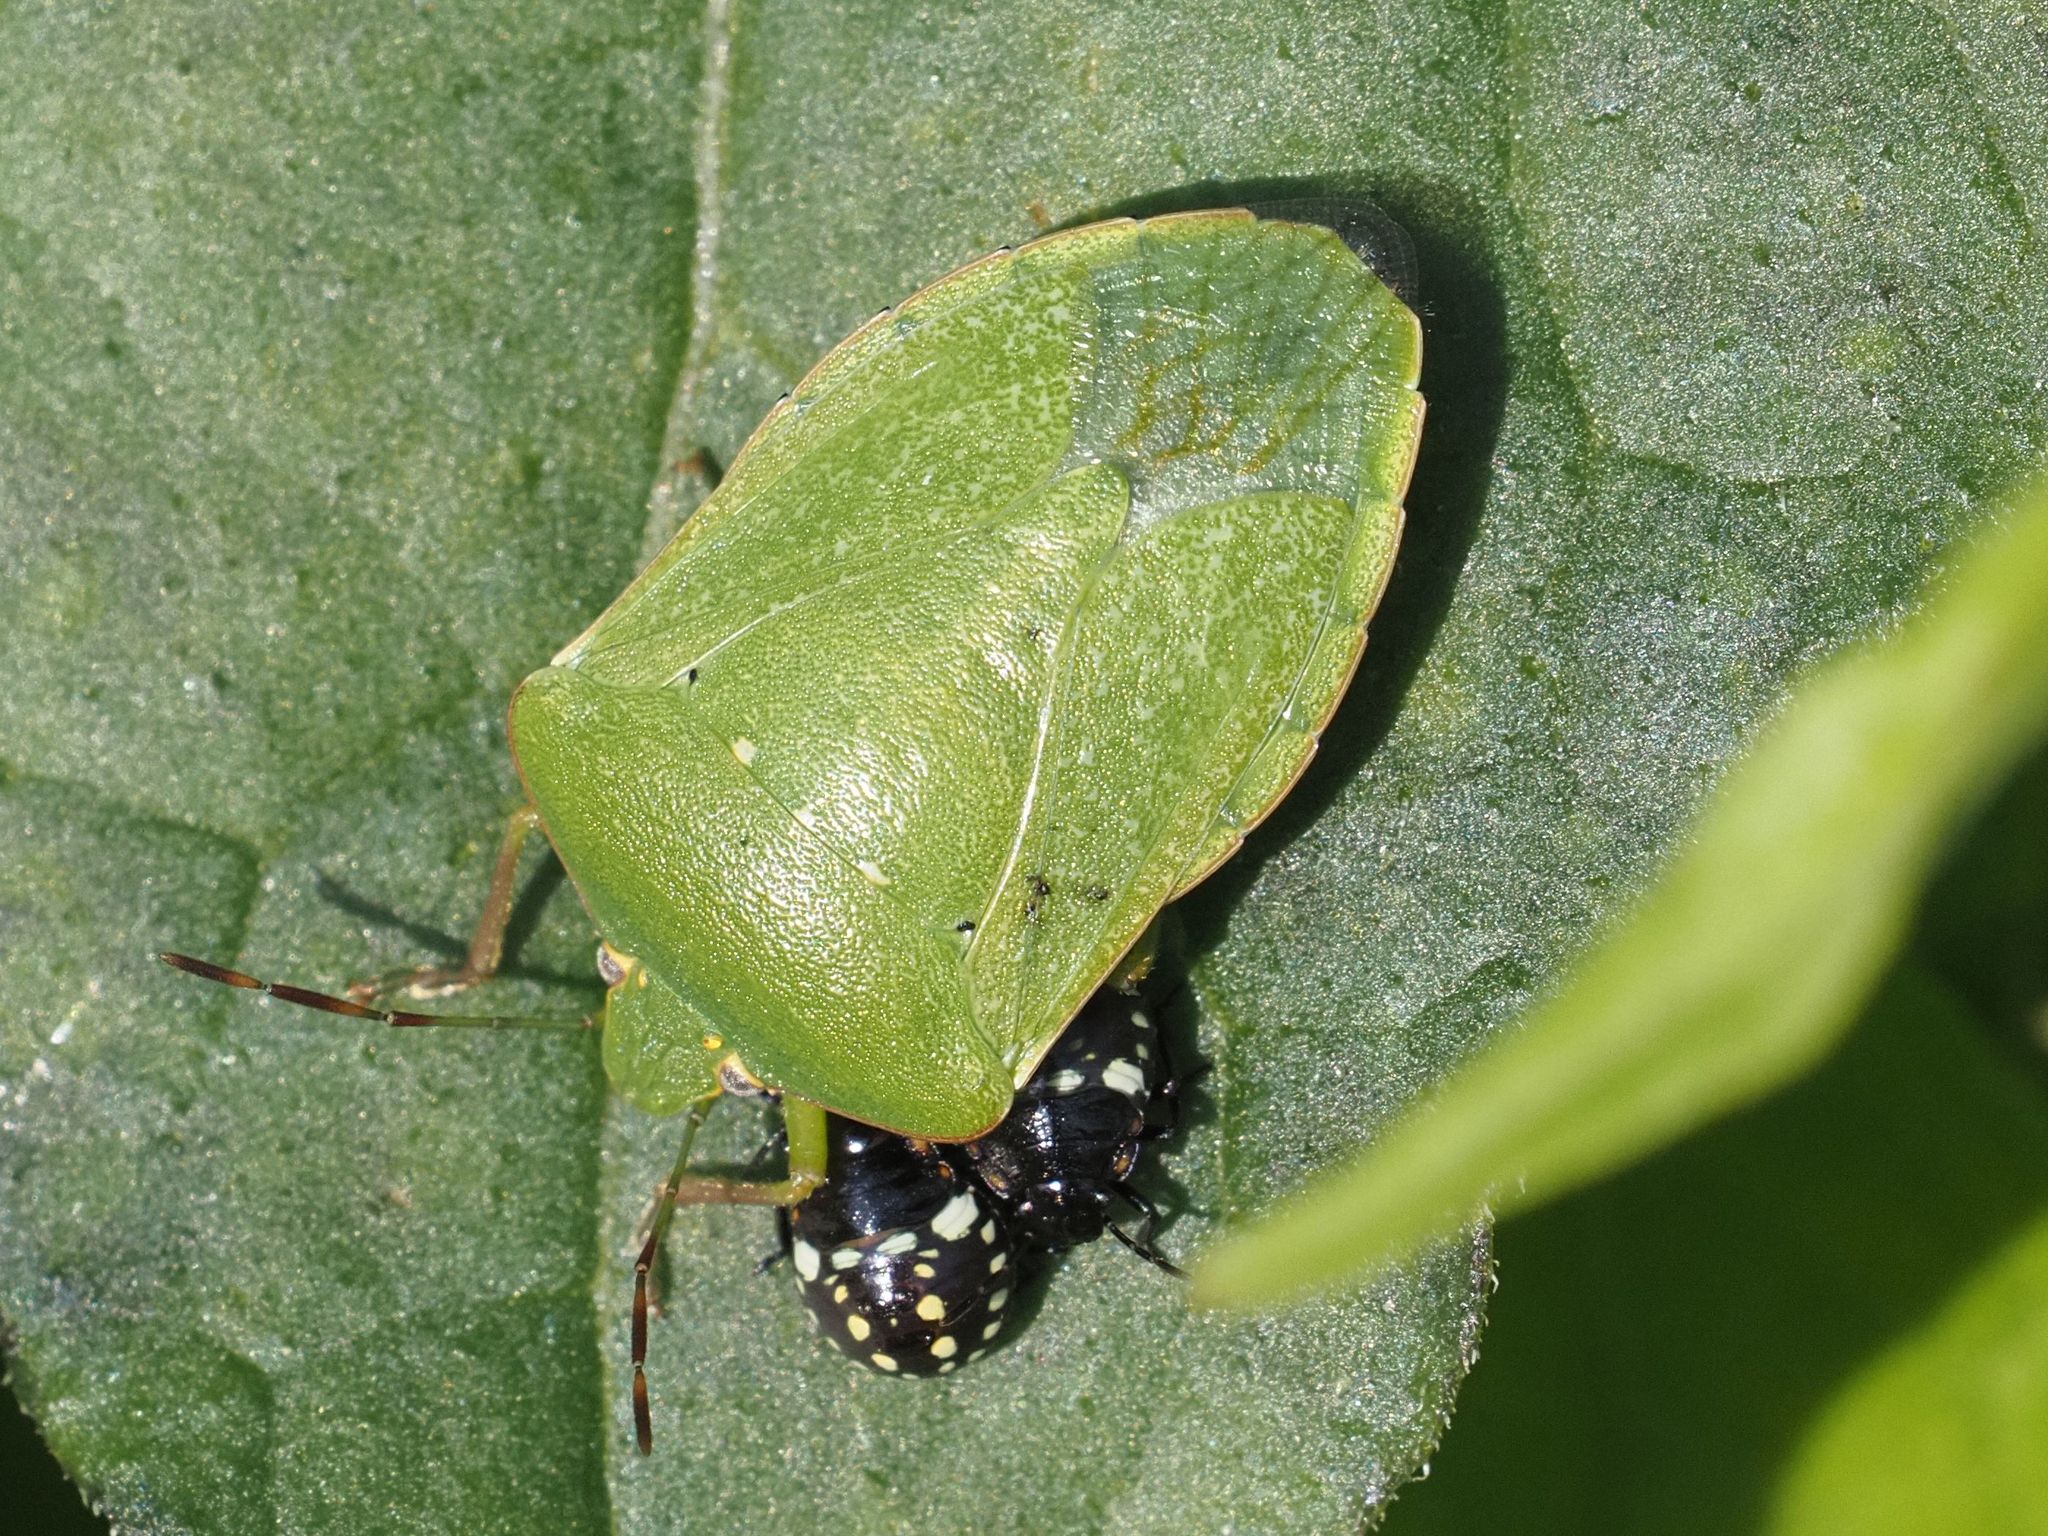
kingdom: Animalia
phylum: Arthropoda
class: Insecta
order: Hemiptera
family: Pentatomidae
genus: Nezara
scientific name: Nezara viridula
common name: Southern green stink bug
